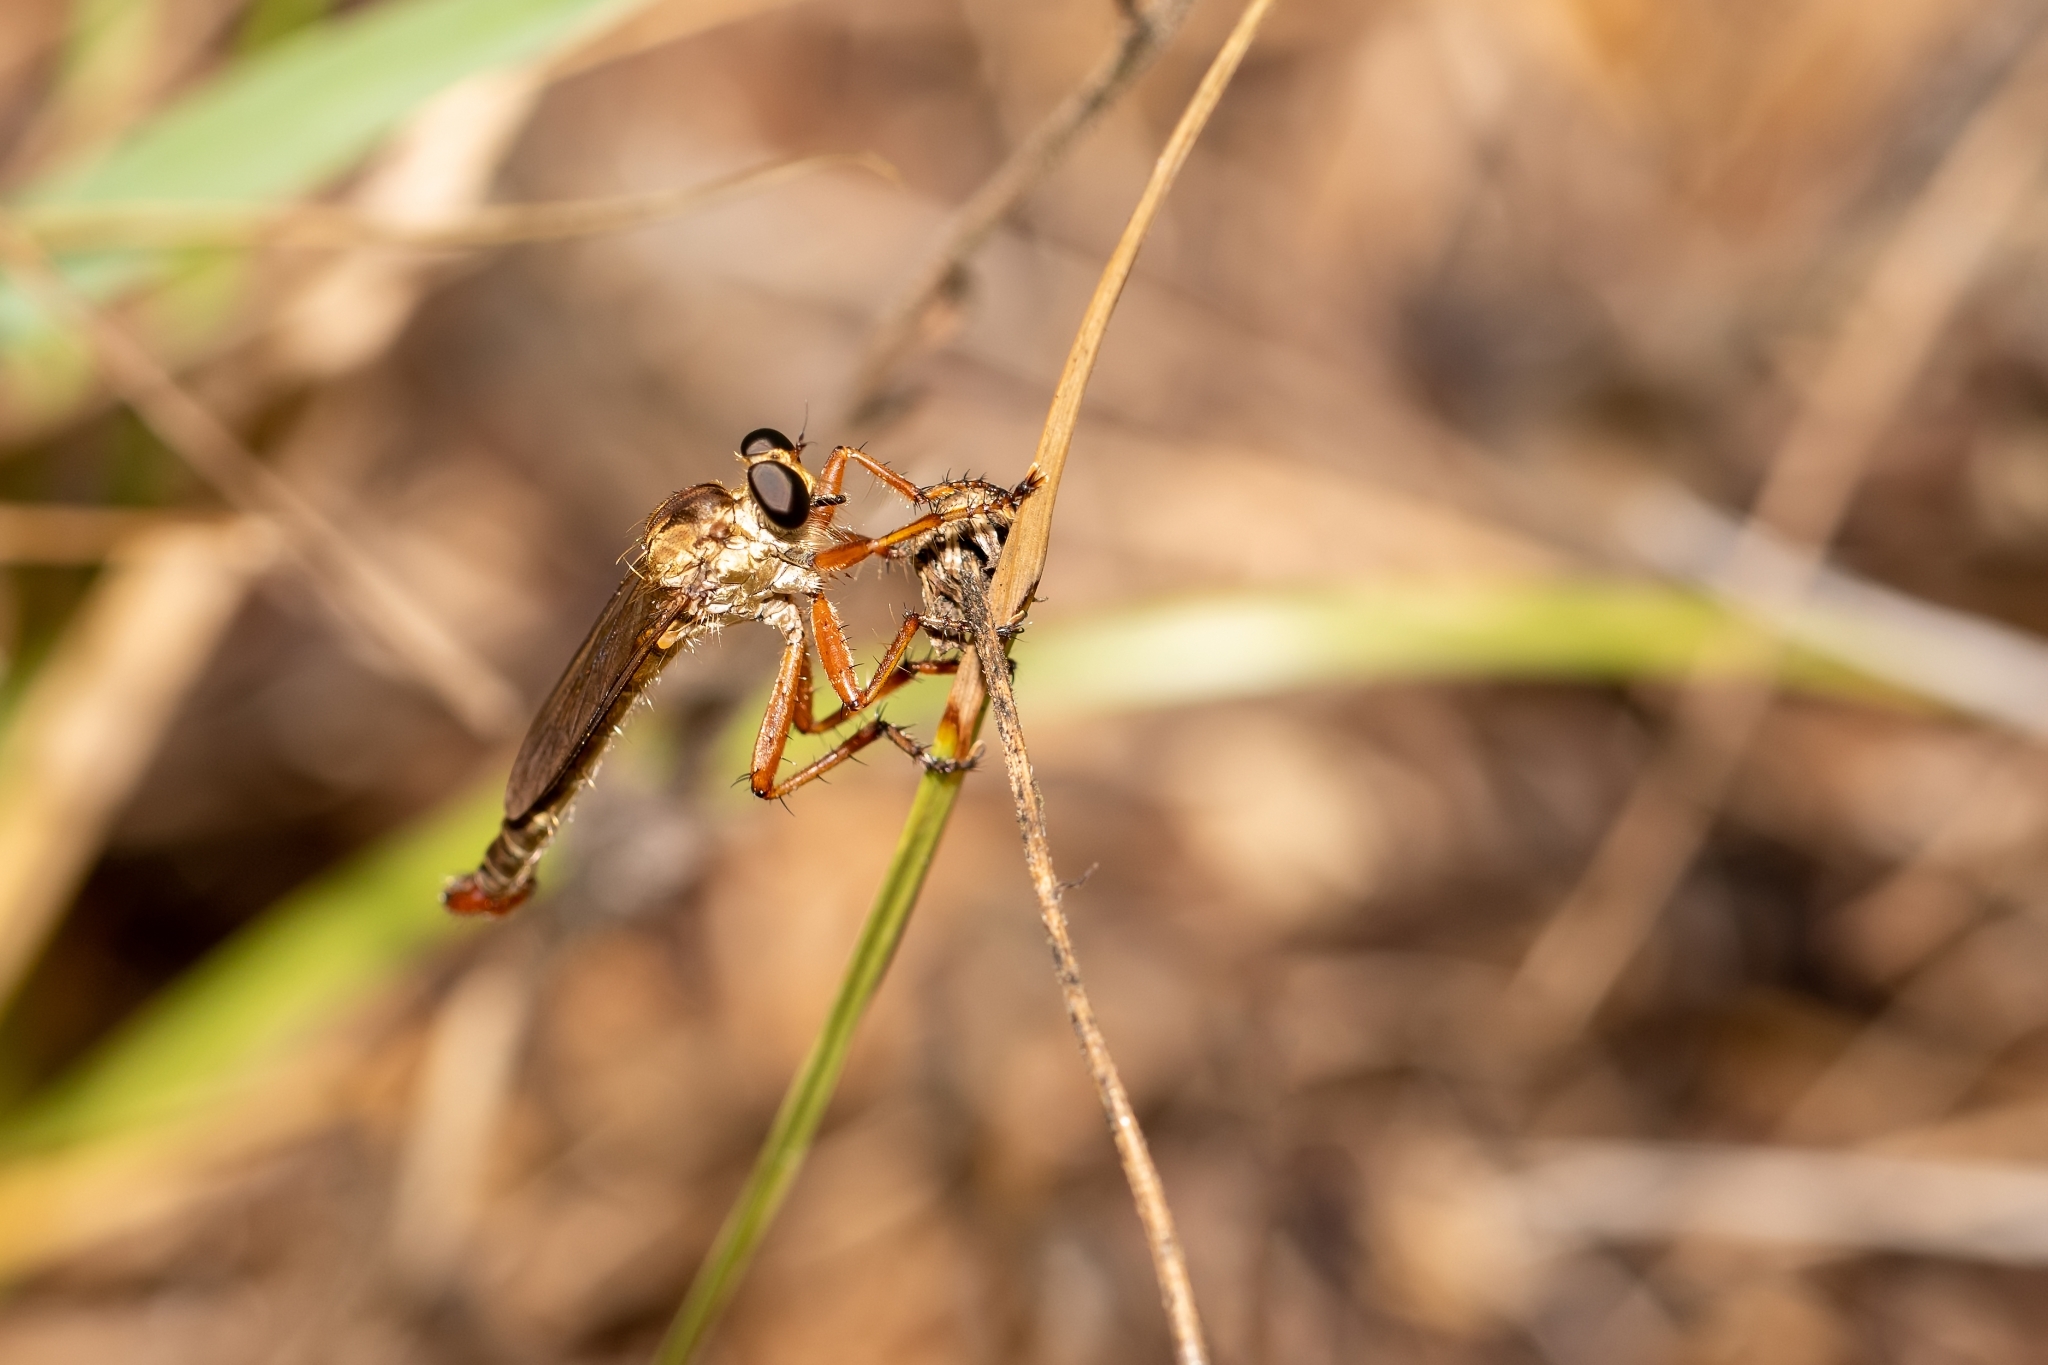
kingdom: Animalia
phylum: Arthropoda
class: Insecta
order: Diptera
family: Asilidae
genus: Polacantha
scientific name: Polacantha gracilis
